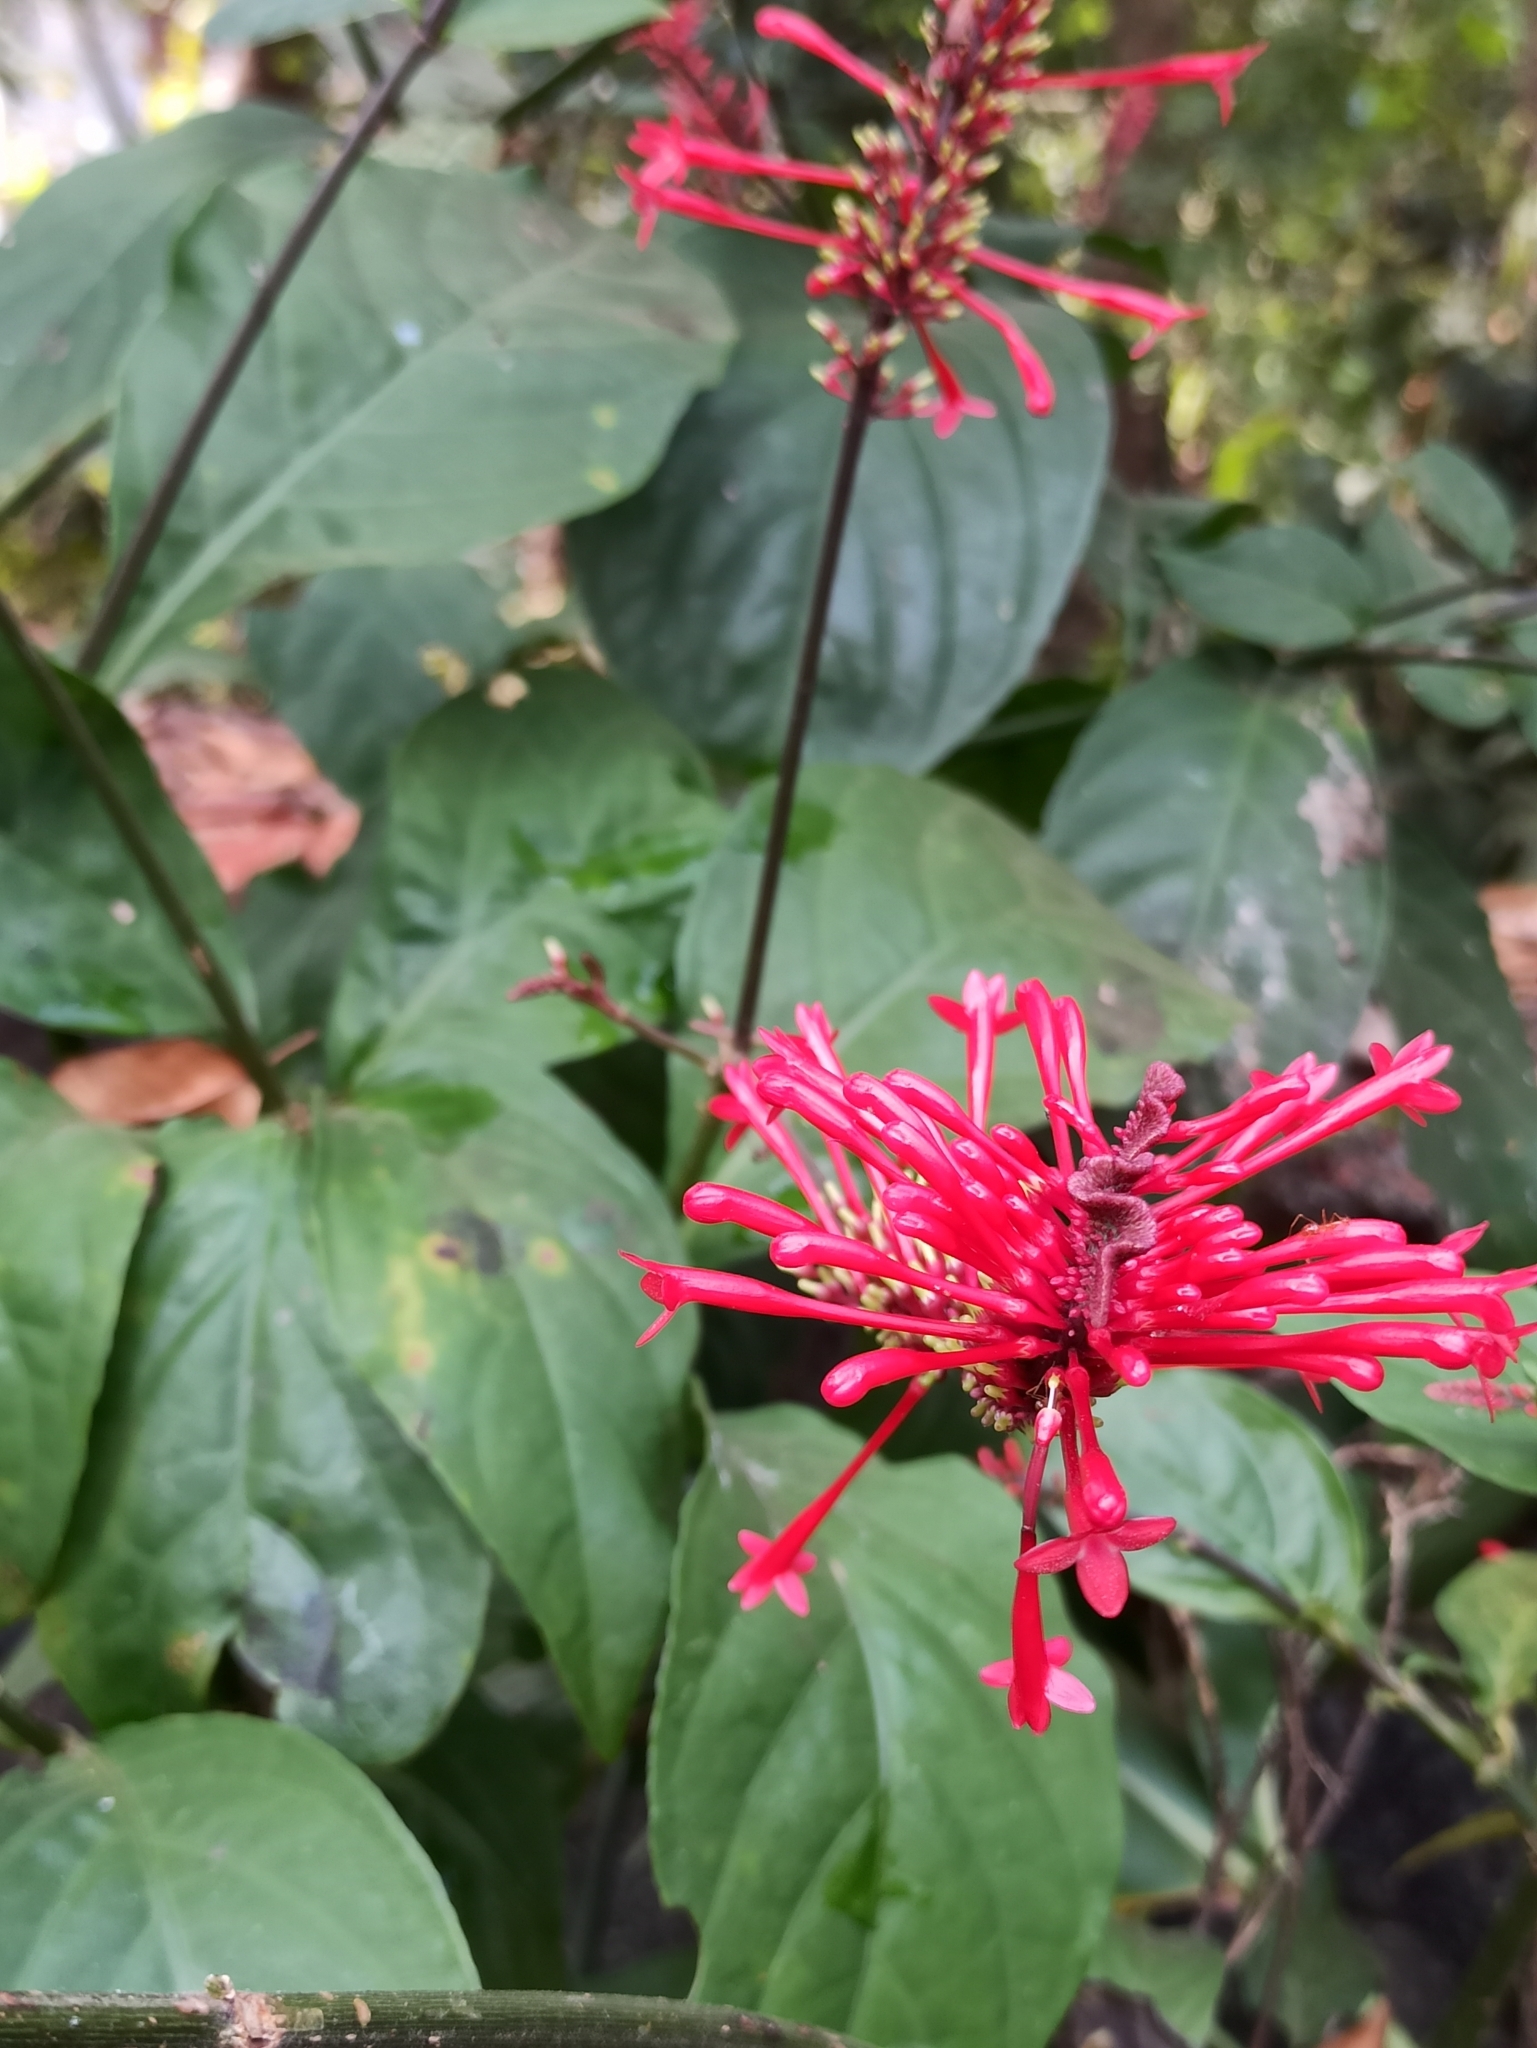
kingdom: Plantae
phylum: Tracheophyta
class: Magnoliopsida
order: Lamiales
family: Acanthaceae
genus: Odontonema
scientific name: Odontonema tubaeforme
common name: Firespike
